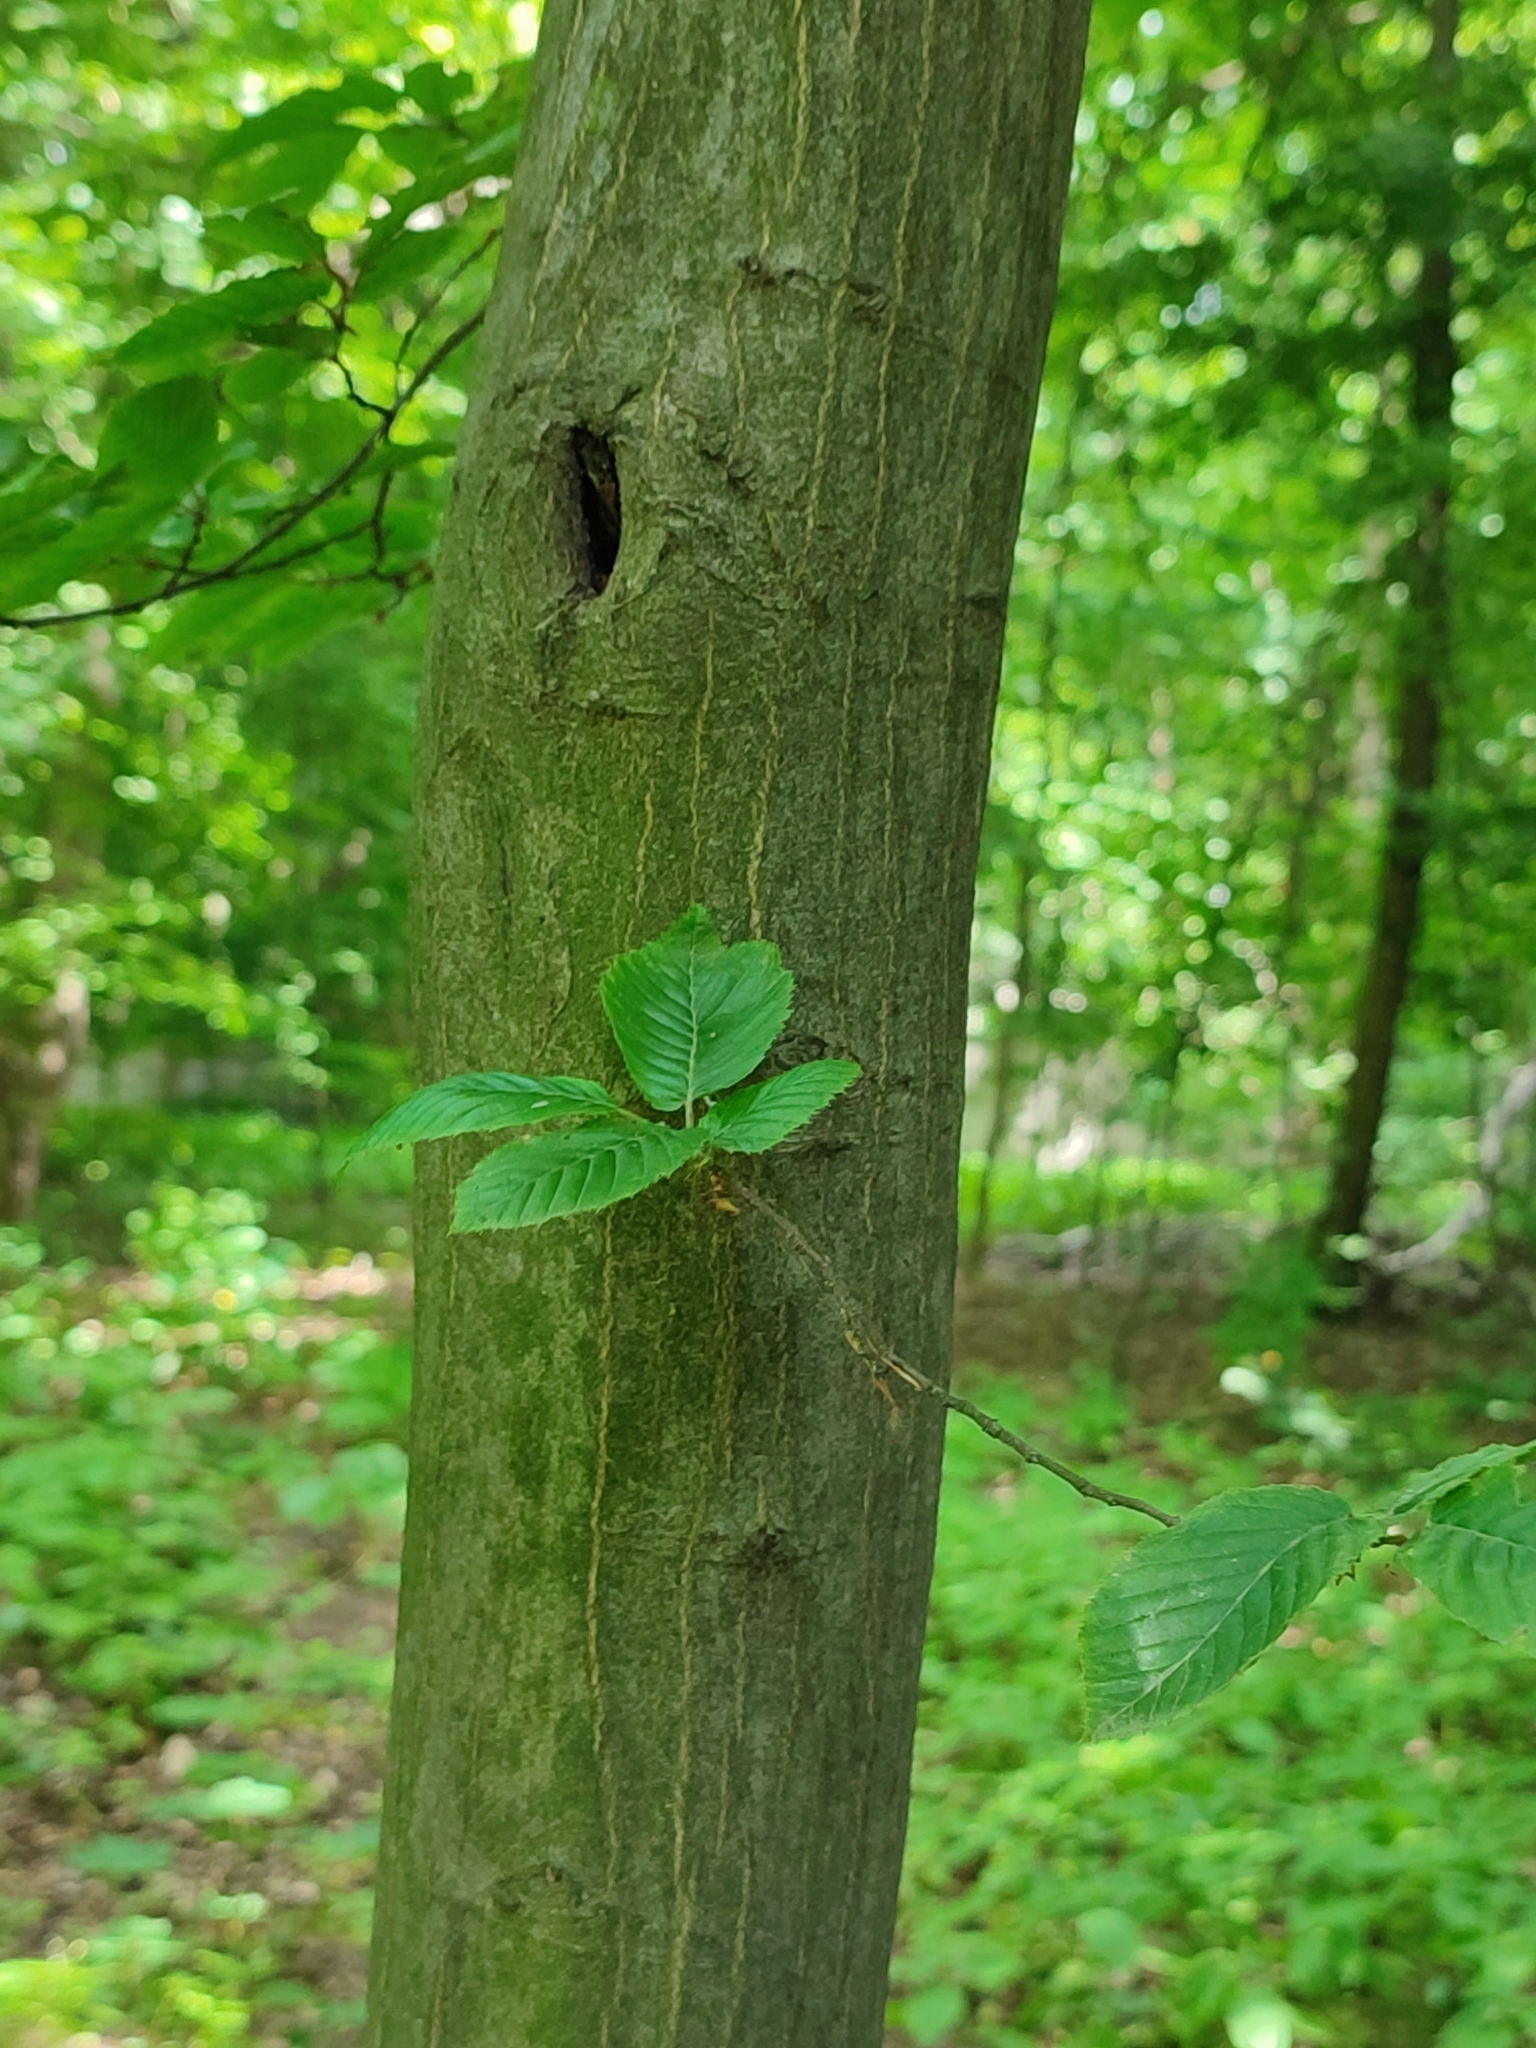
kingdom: Plantae
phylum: Tracheophyta
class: Magnoliopsida
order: Fagales
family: Betulaceae
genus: Carpinus
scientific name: Carpinus betulus
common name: Hornbeam
